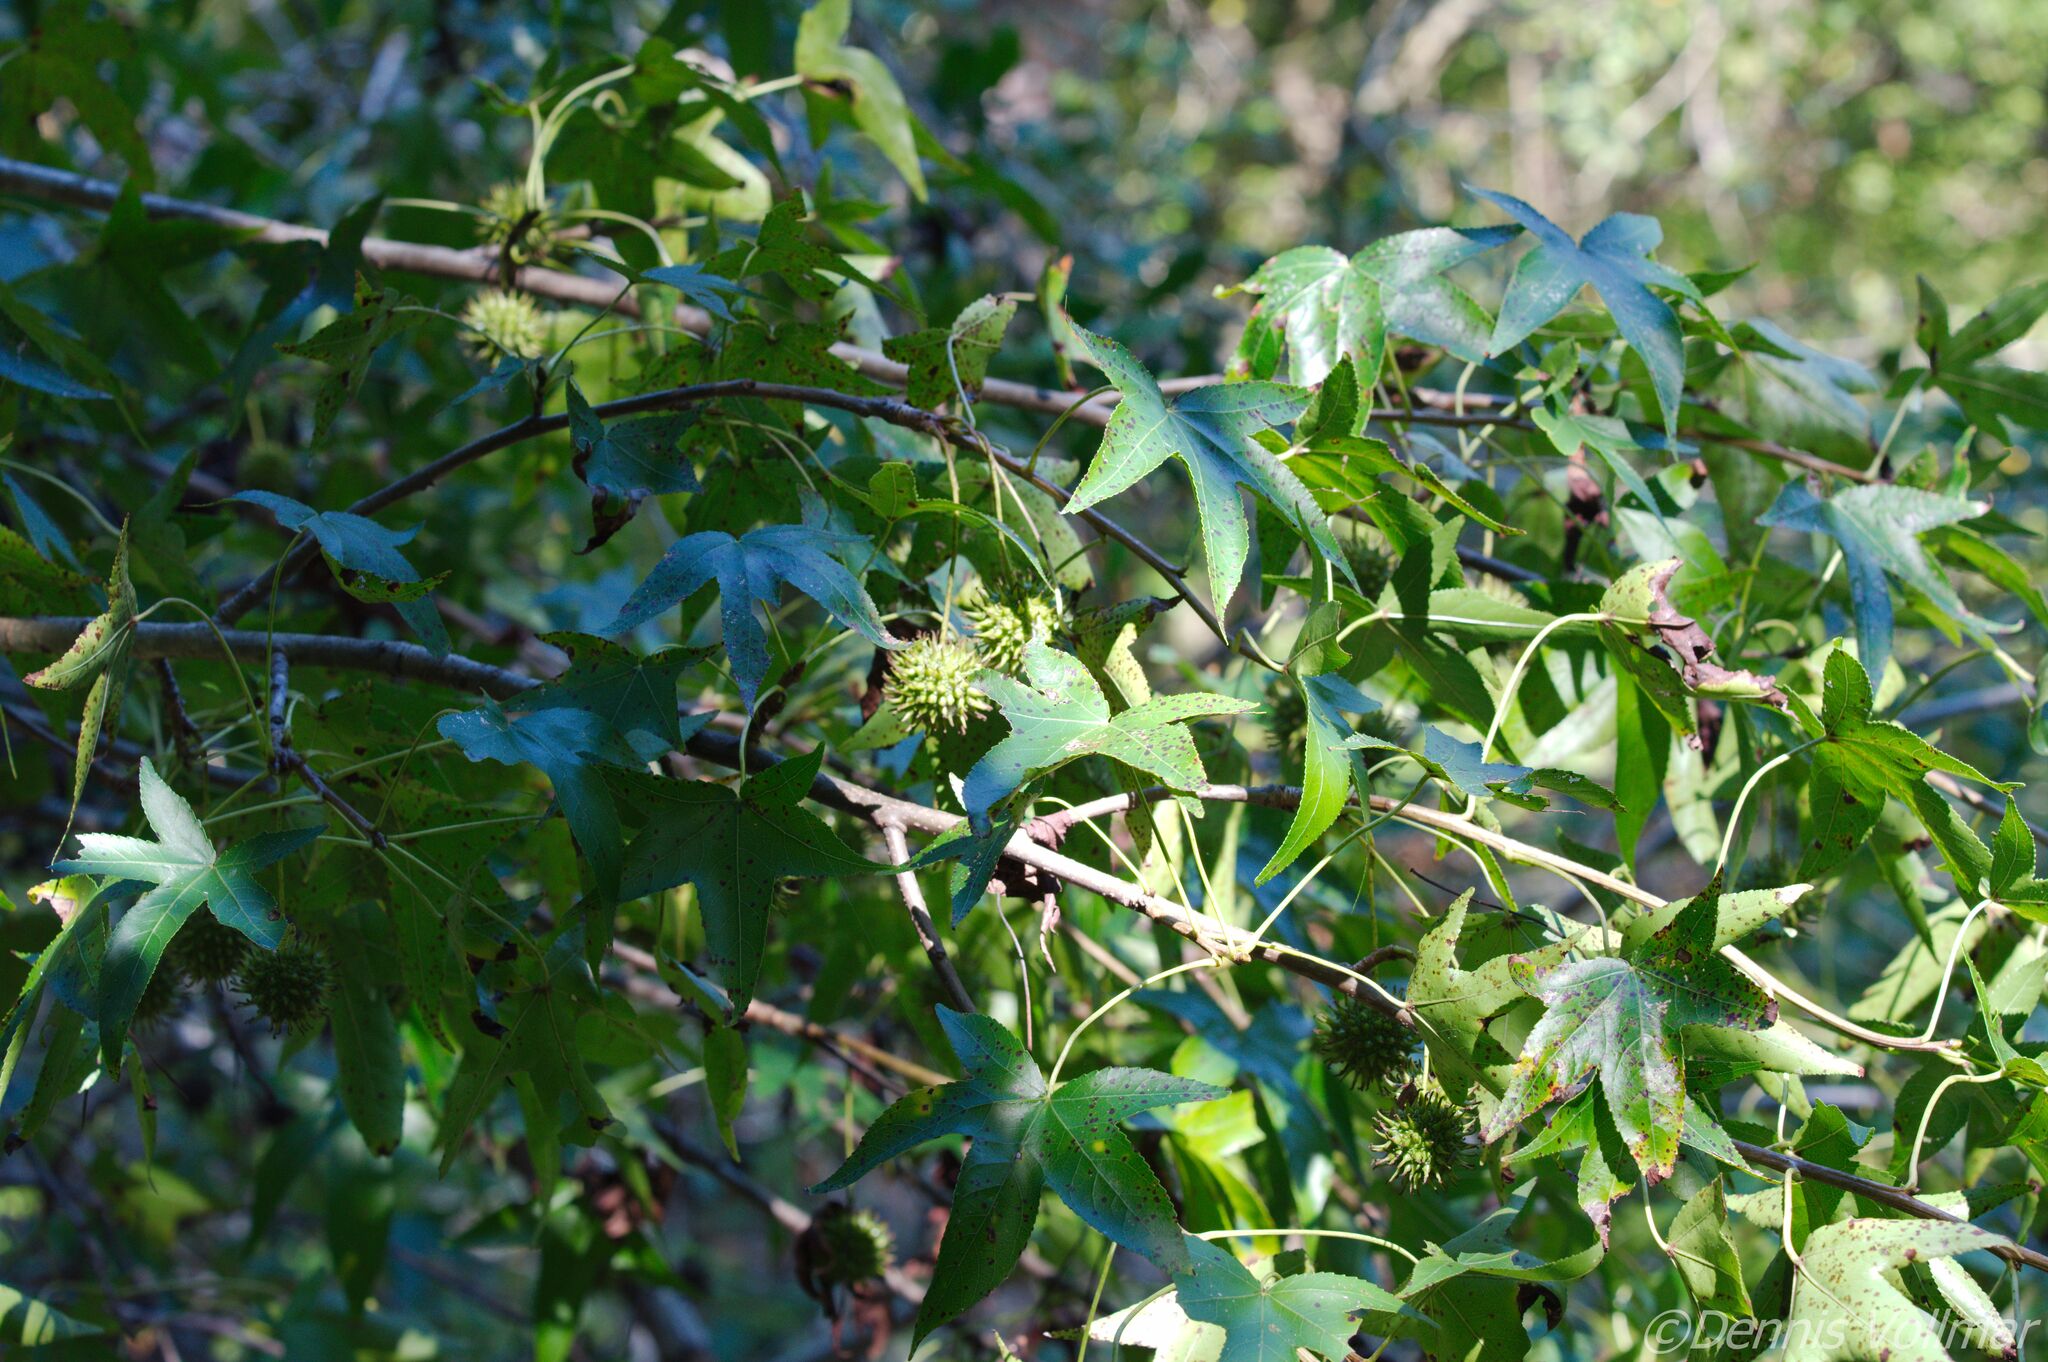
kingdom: Plantae
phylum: Tracheophyta
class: Magnoliopsida
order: Saxifragales
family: Altingiaceae
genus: Liquidambar
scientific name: Liquidambar styraciflua
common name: Sweet gum
